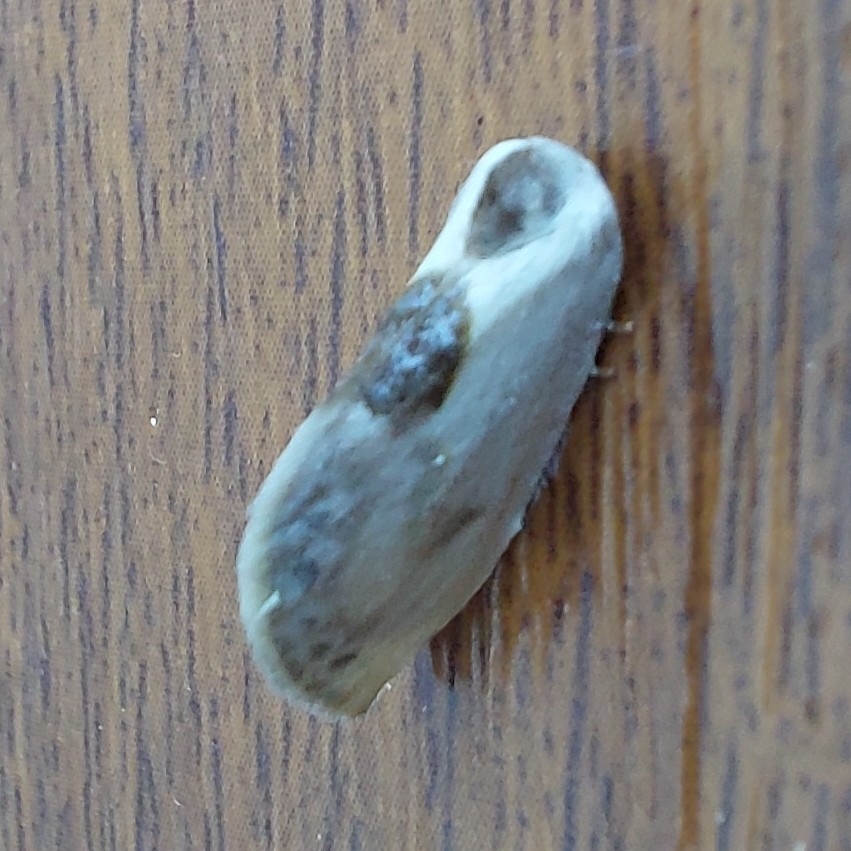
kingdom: Animalia
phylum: Arthropoda
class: Insecta
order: Lepidoptera
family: Drepanidae
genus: Cilix
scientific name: Cilix asiatica
